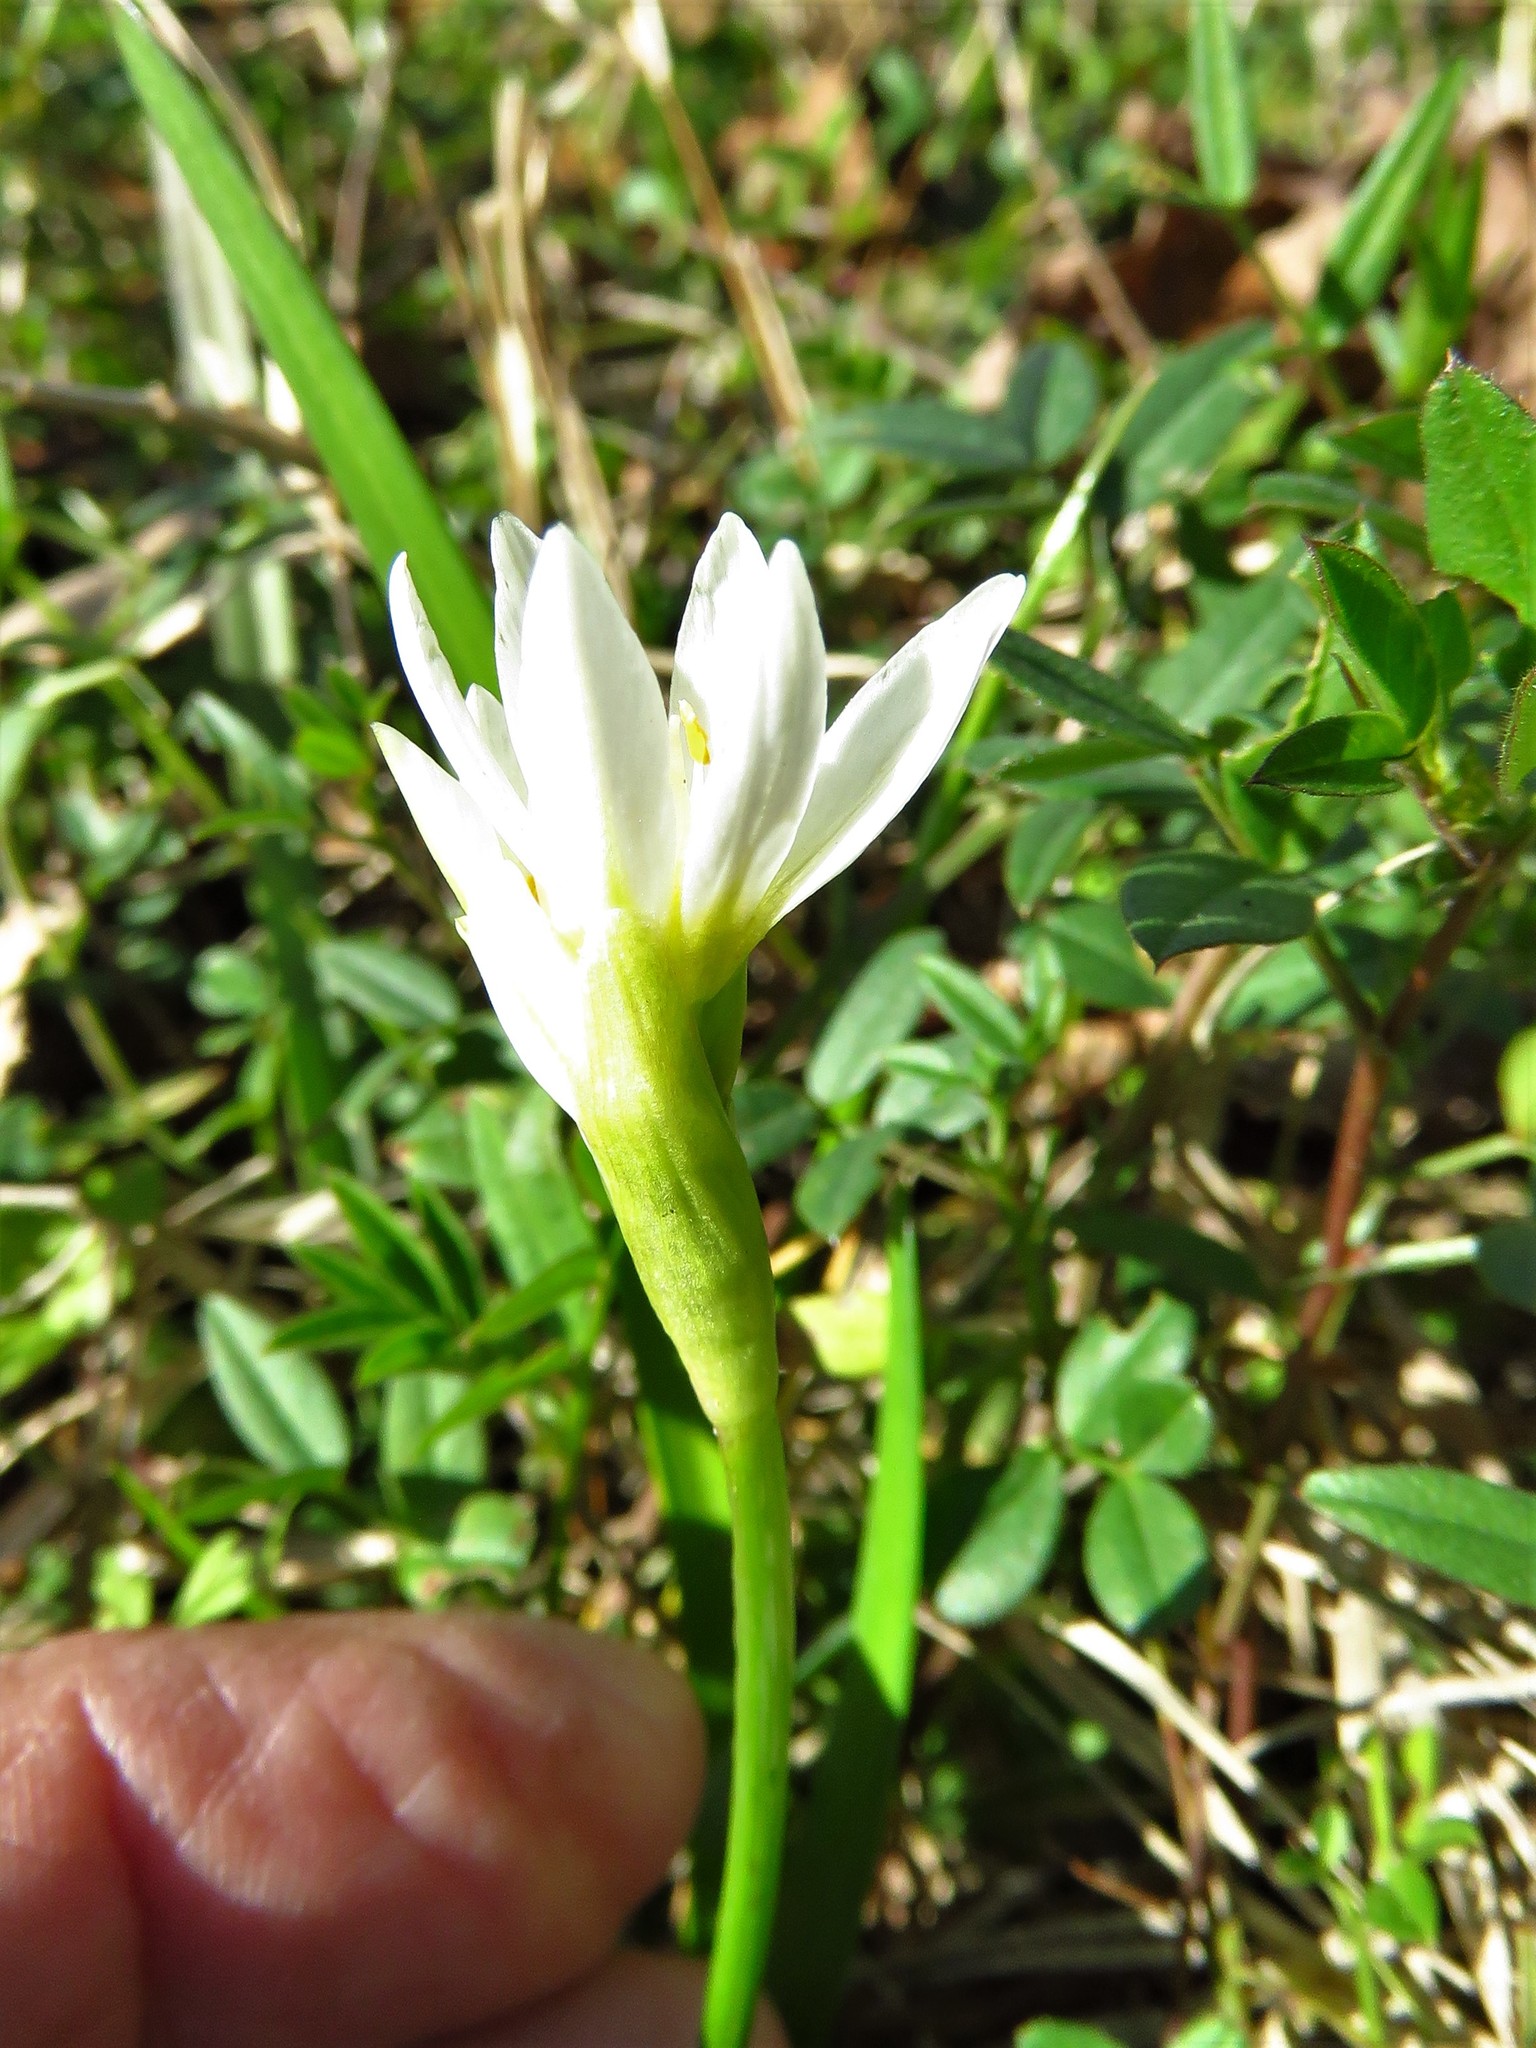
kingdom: Plantae
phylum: Tracheophyta
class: Liliopsida
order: Asparagales
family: Amaryllidaceae
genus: Nothoscordum
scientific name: Nothoscordum bivalve
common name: Crow-poison
